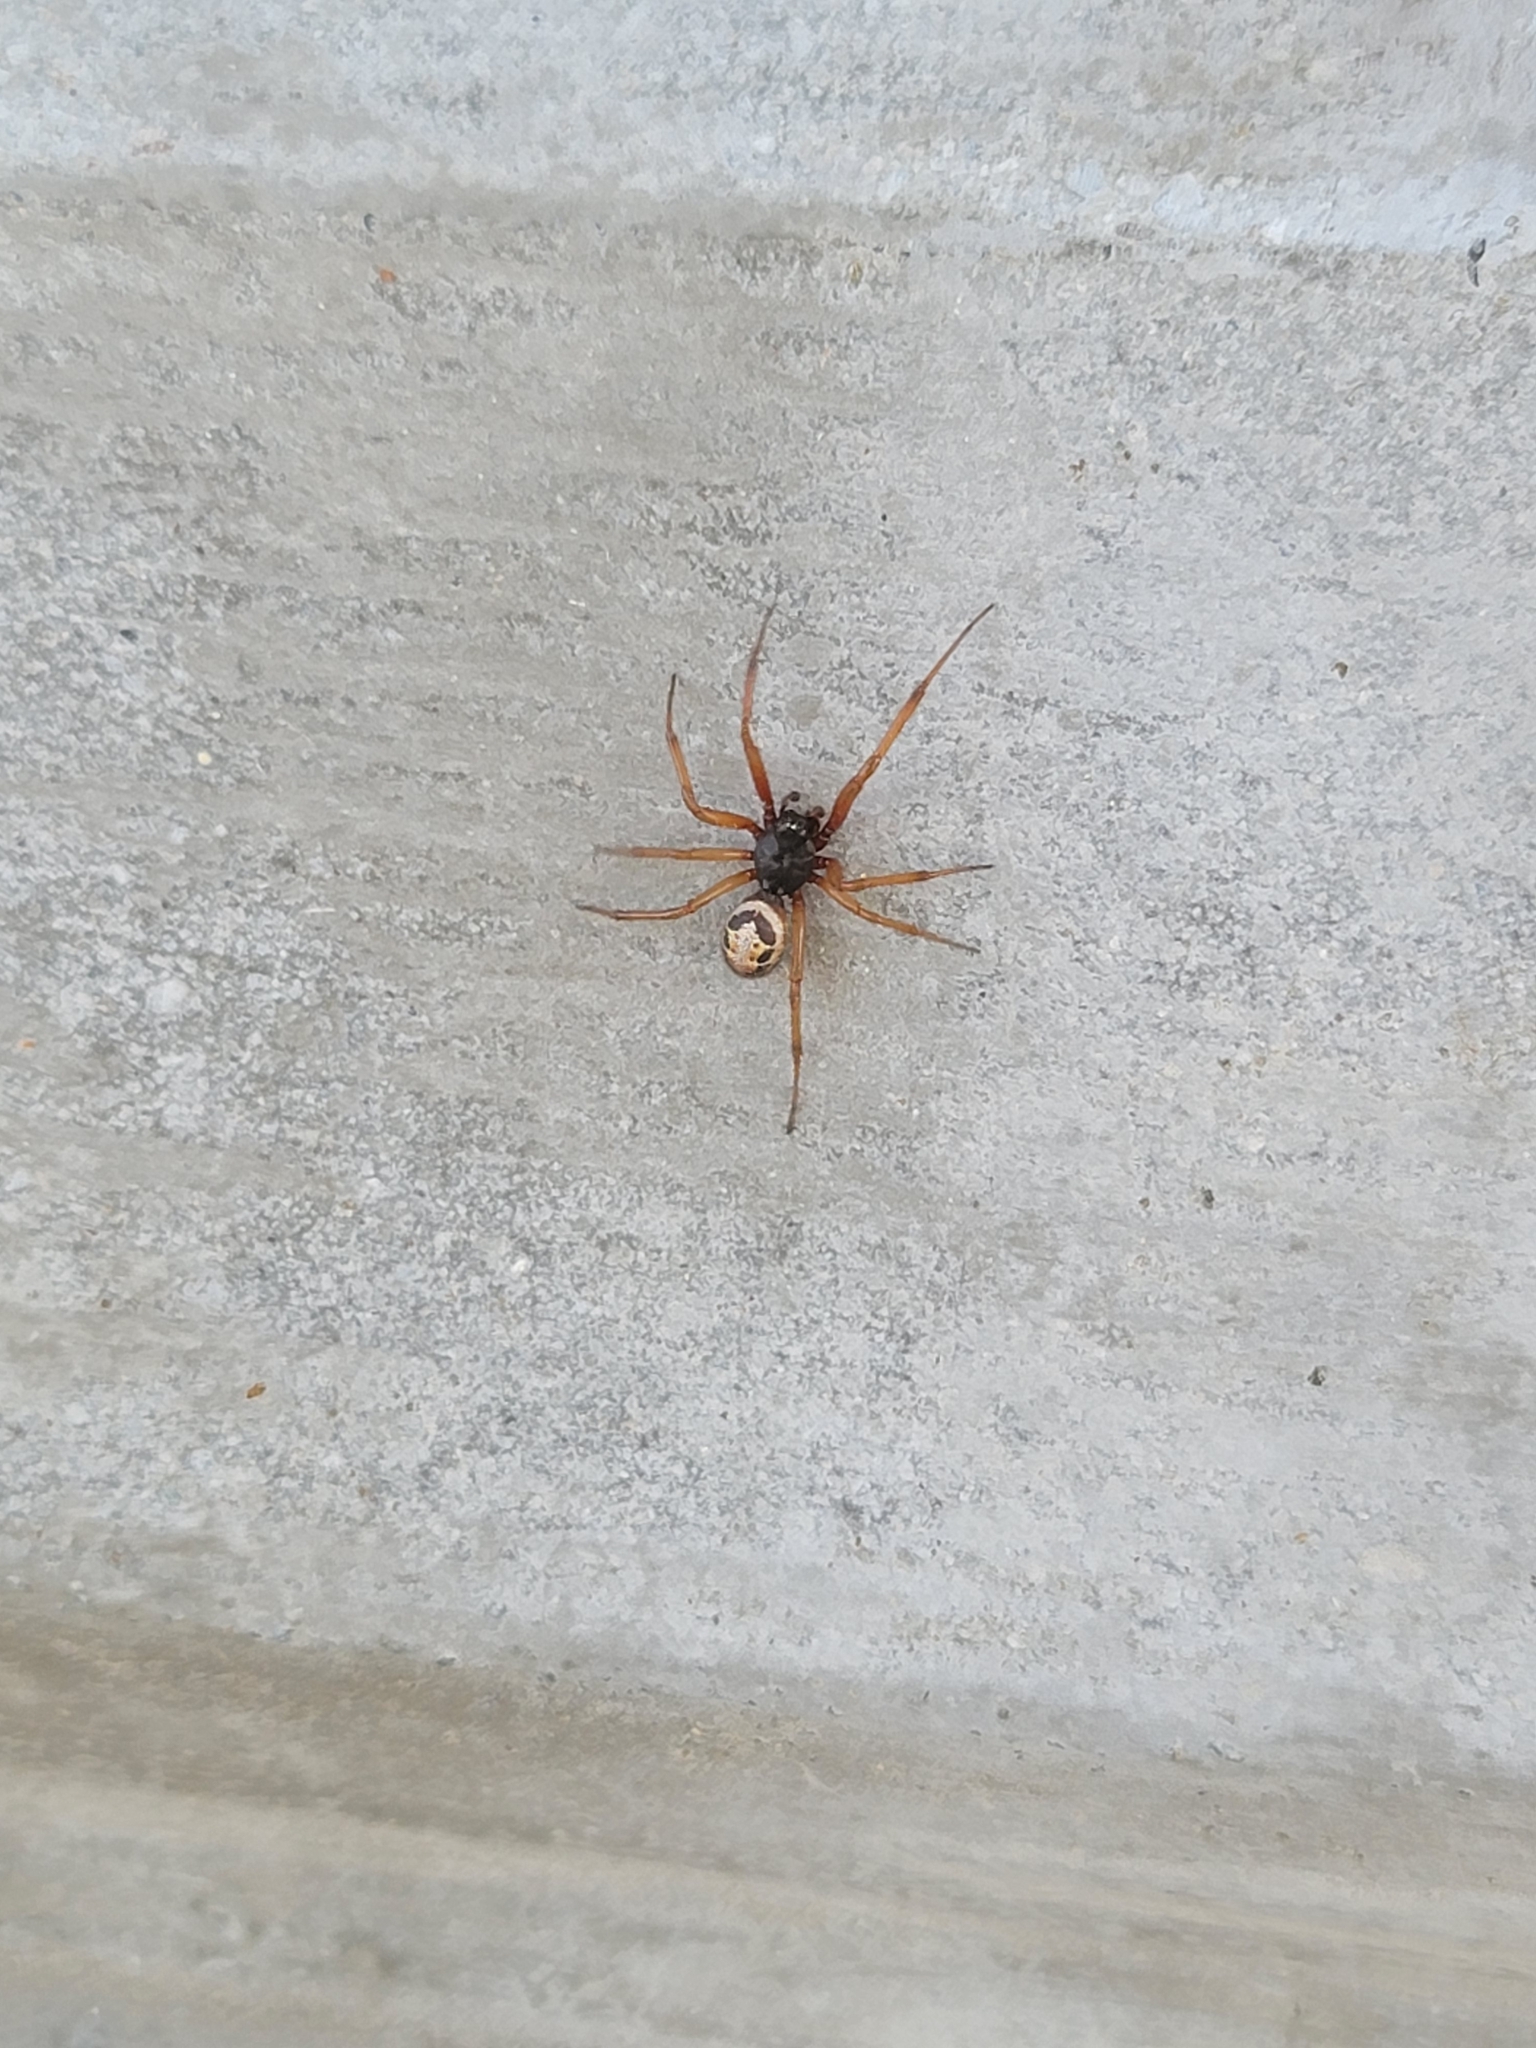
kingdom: Animalia
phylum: Arthropoda
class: Arachnida
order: Araneae
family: Theridiidae
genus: Steatoda
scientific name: Steatoda nobilis
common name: Cobweb weaver
